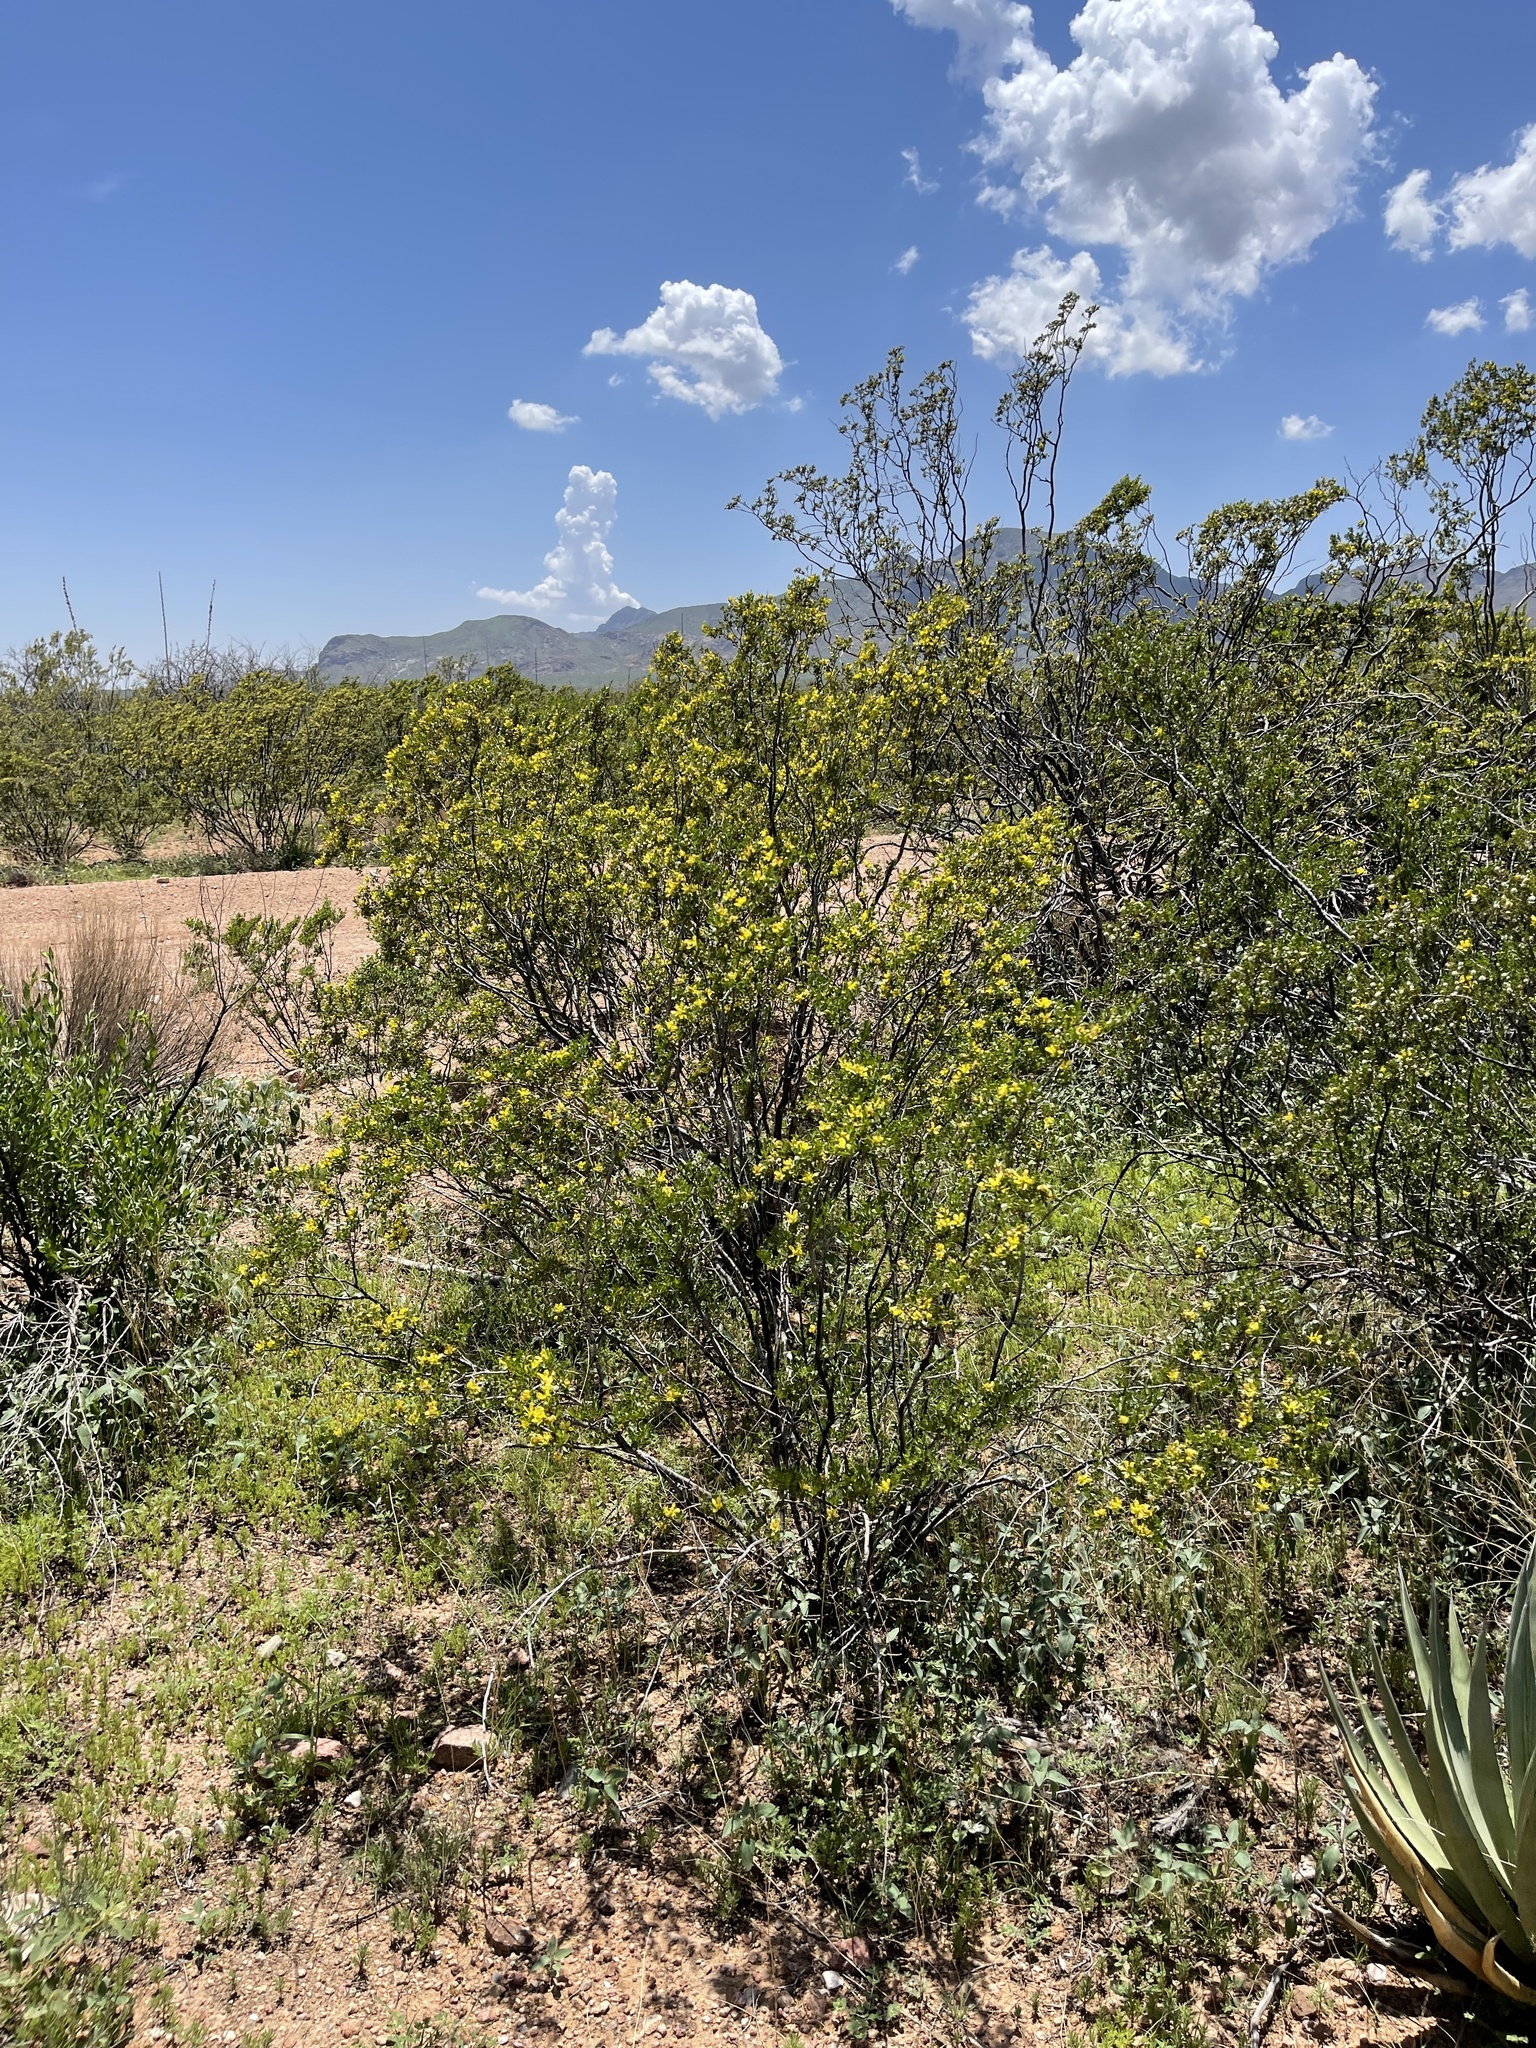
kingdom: Plantae
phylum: Tracheophyta
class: Magnoliopsida
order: Zygophyllales
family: Zygophyllaceae
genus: Larrea
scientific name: Larrea tridentata
